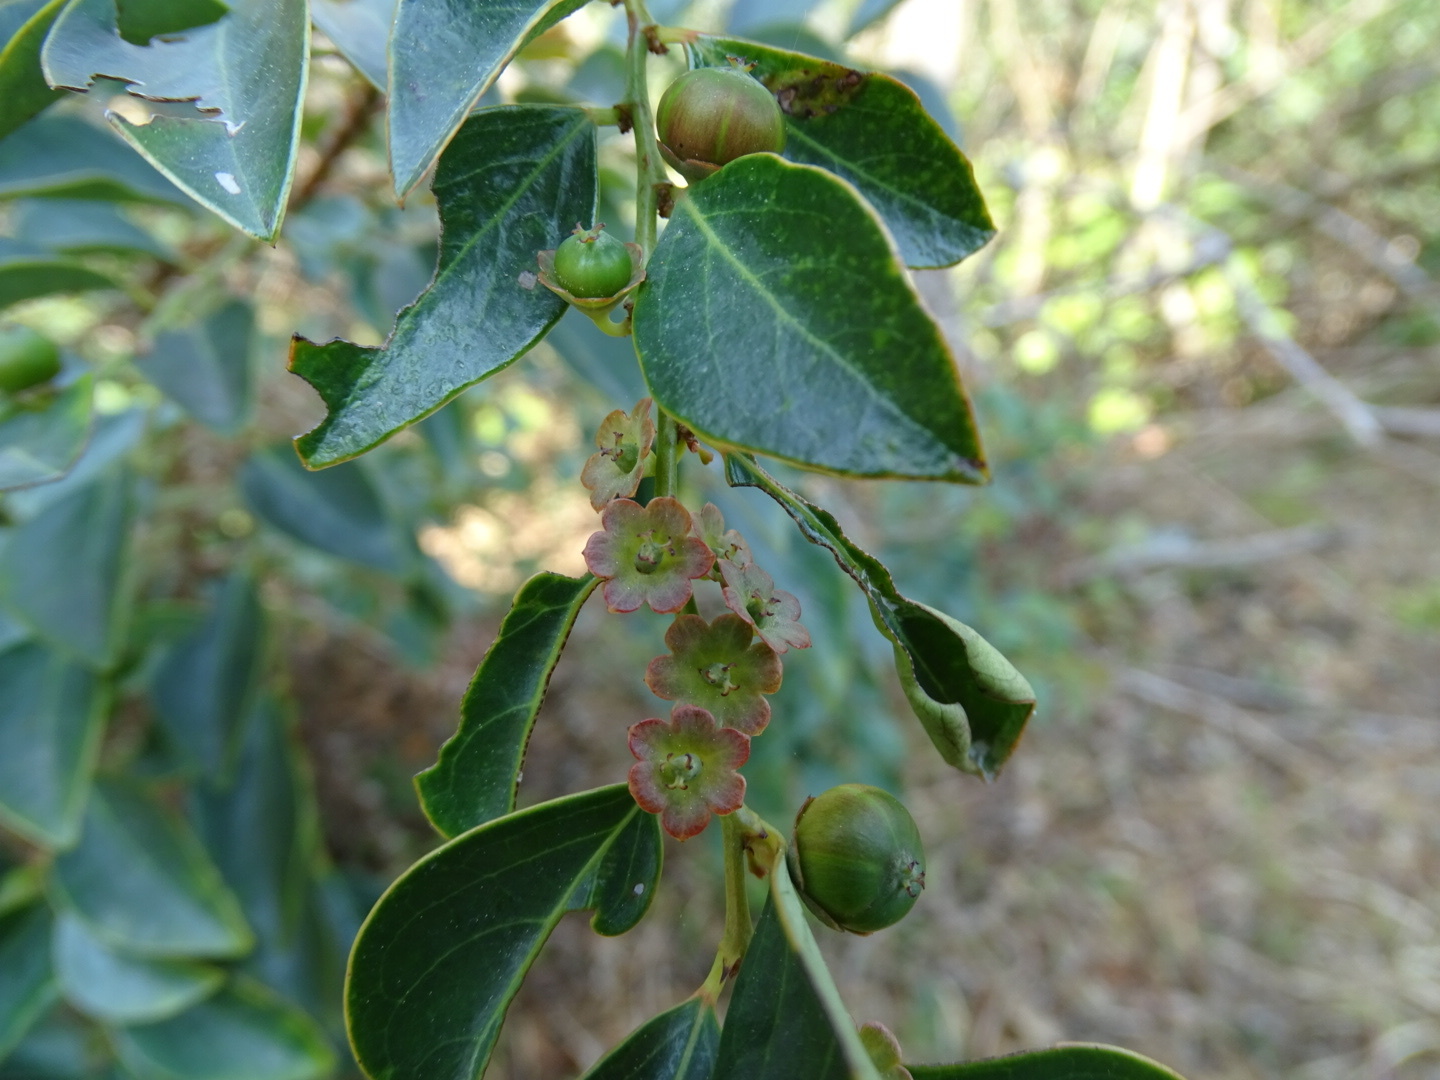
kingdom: Plantae
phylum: Tracheophyta
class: Magnoliopsida
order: Malpighiales
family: Phyllanthaceae
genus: Breynia
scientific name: Breynia fruticosa
